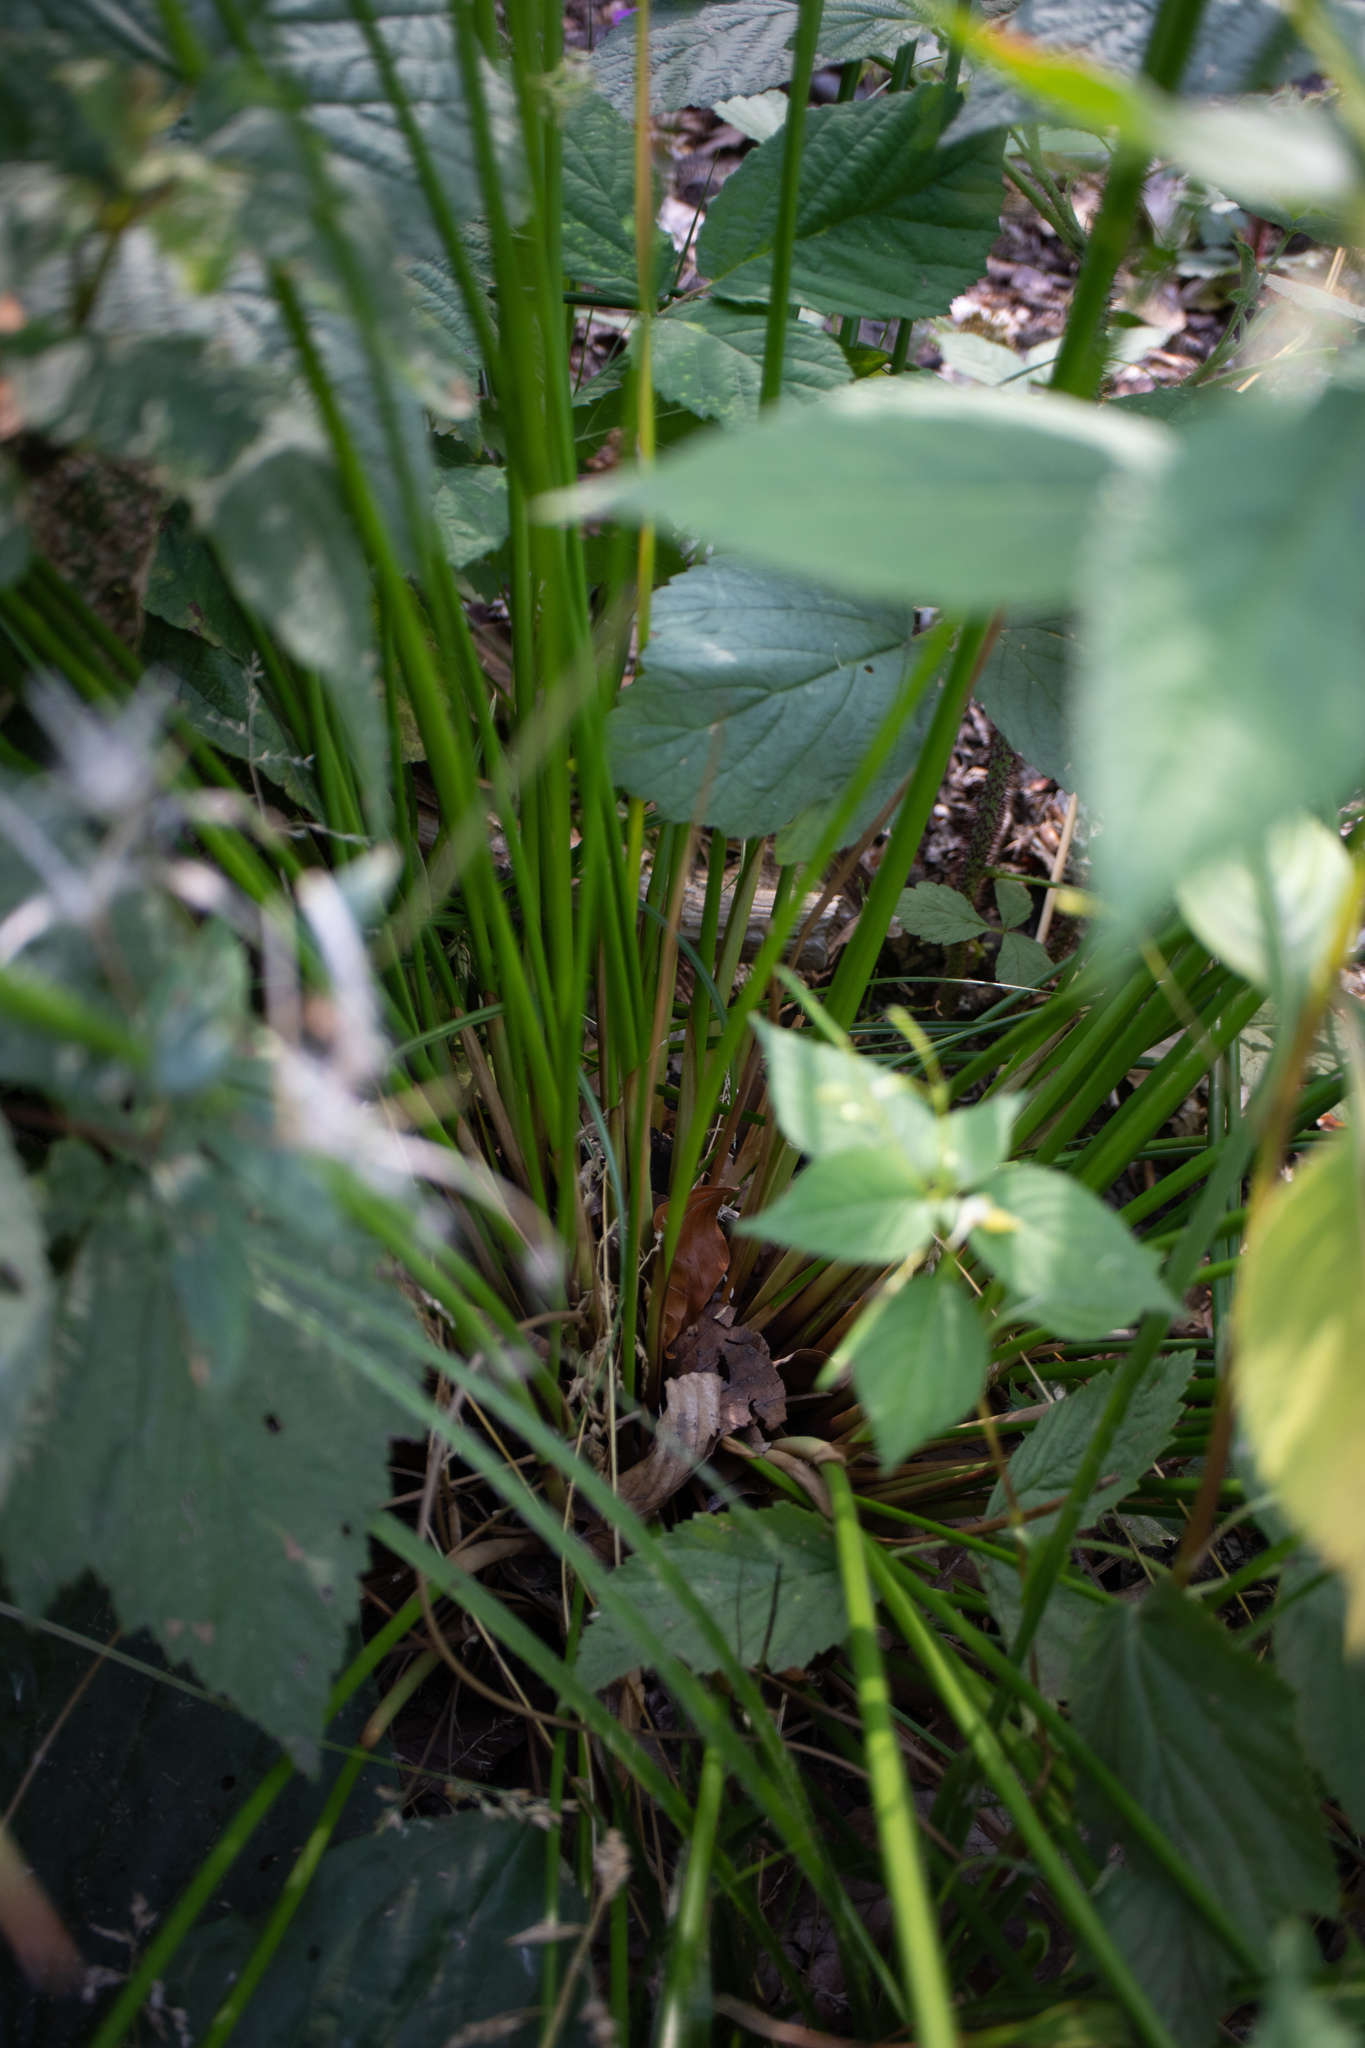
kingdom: Plantae
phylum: Tracheophyta
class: Liliopsida
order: Poales
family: Juncaceae
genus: Juncus
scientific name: Juncus effusus
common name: Soft rush
